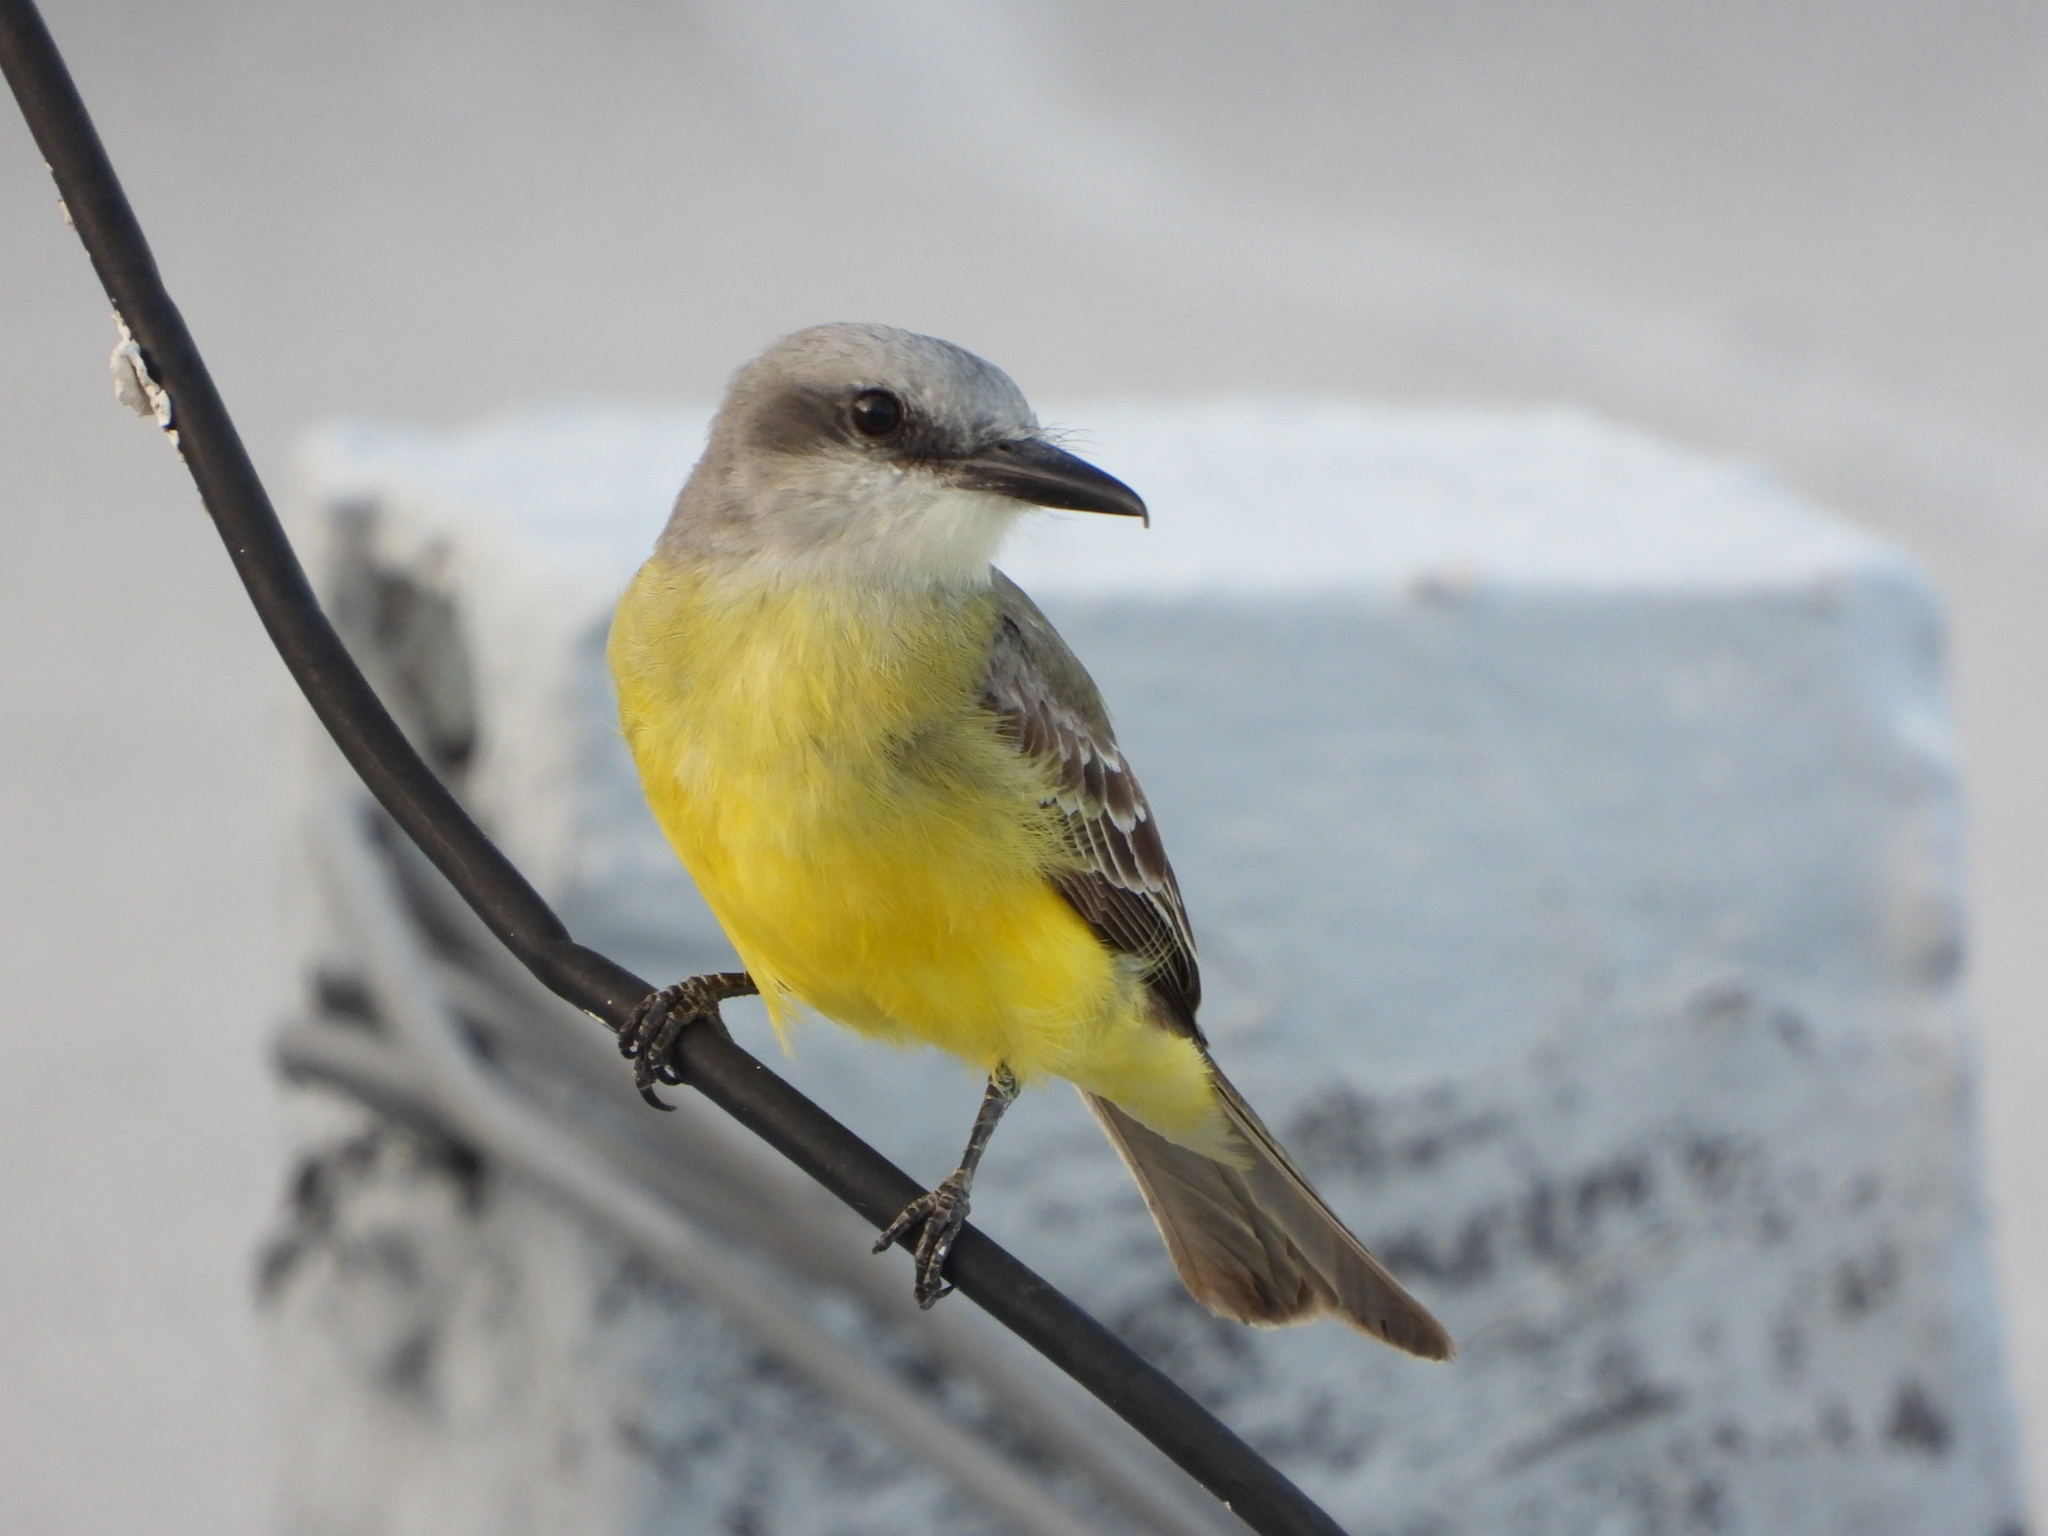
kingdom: Animalia
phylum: Chordata
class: Aves
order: Passeriformes
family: Tyrannidae
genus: Tyrannus
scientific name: Tyrannus melancholicus
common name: Tropical kingbird
